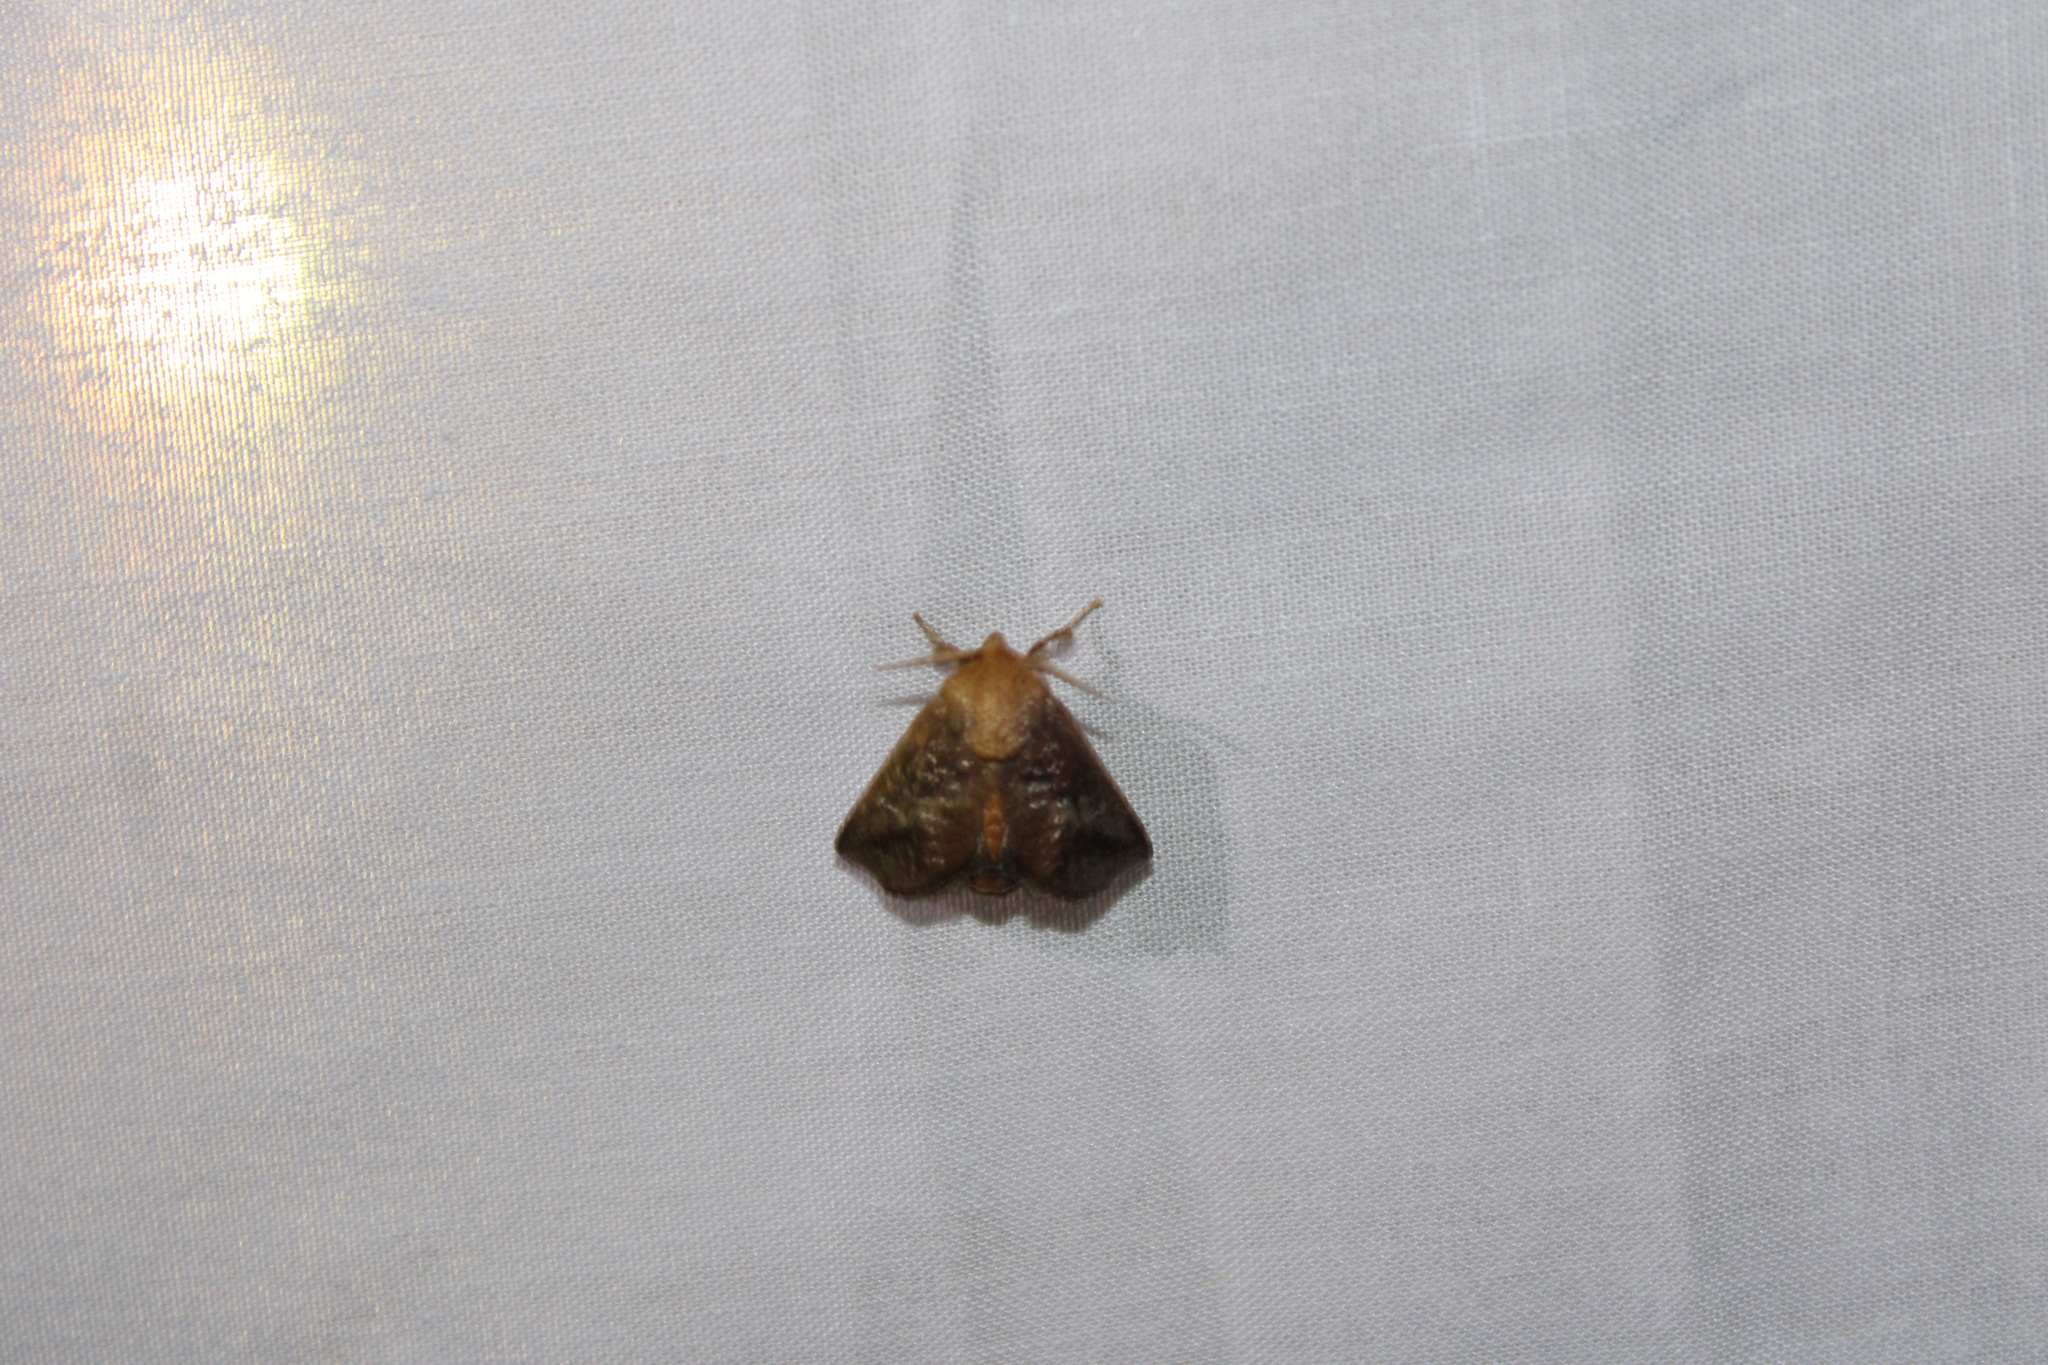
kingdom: Animalia
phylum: Arthropoda
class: Insecta
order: Lepidoptera
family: Limacodidae
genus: Isa
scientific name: Isa textula
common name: Crowned slug moth
